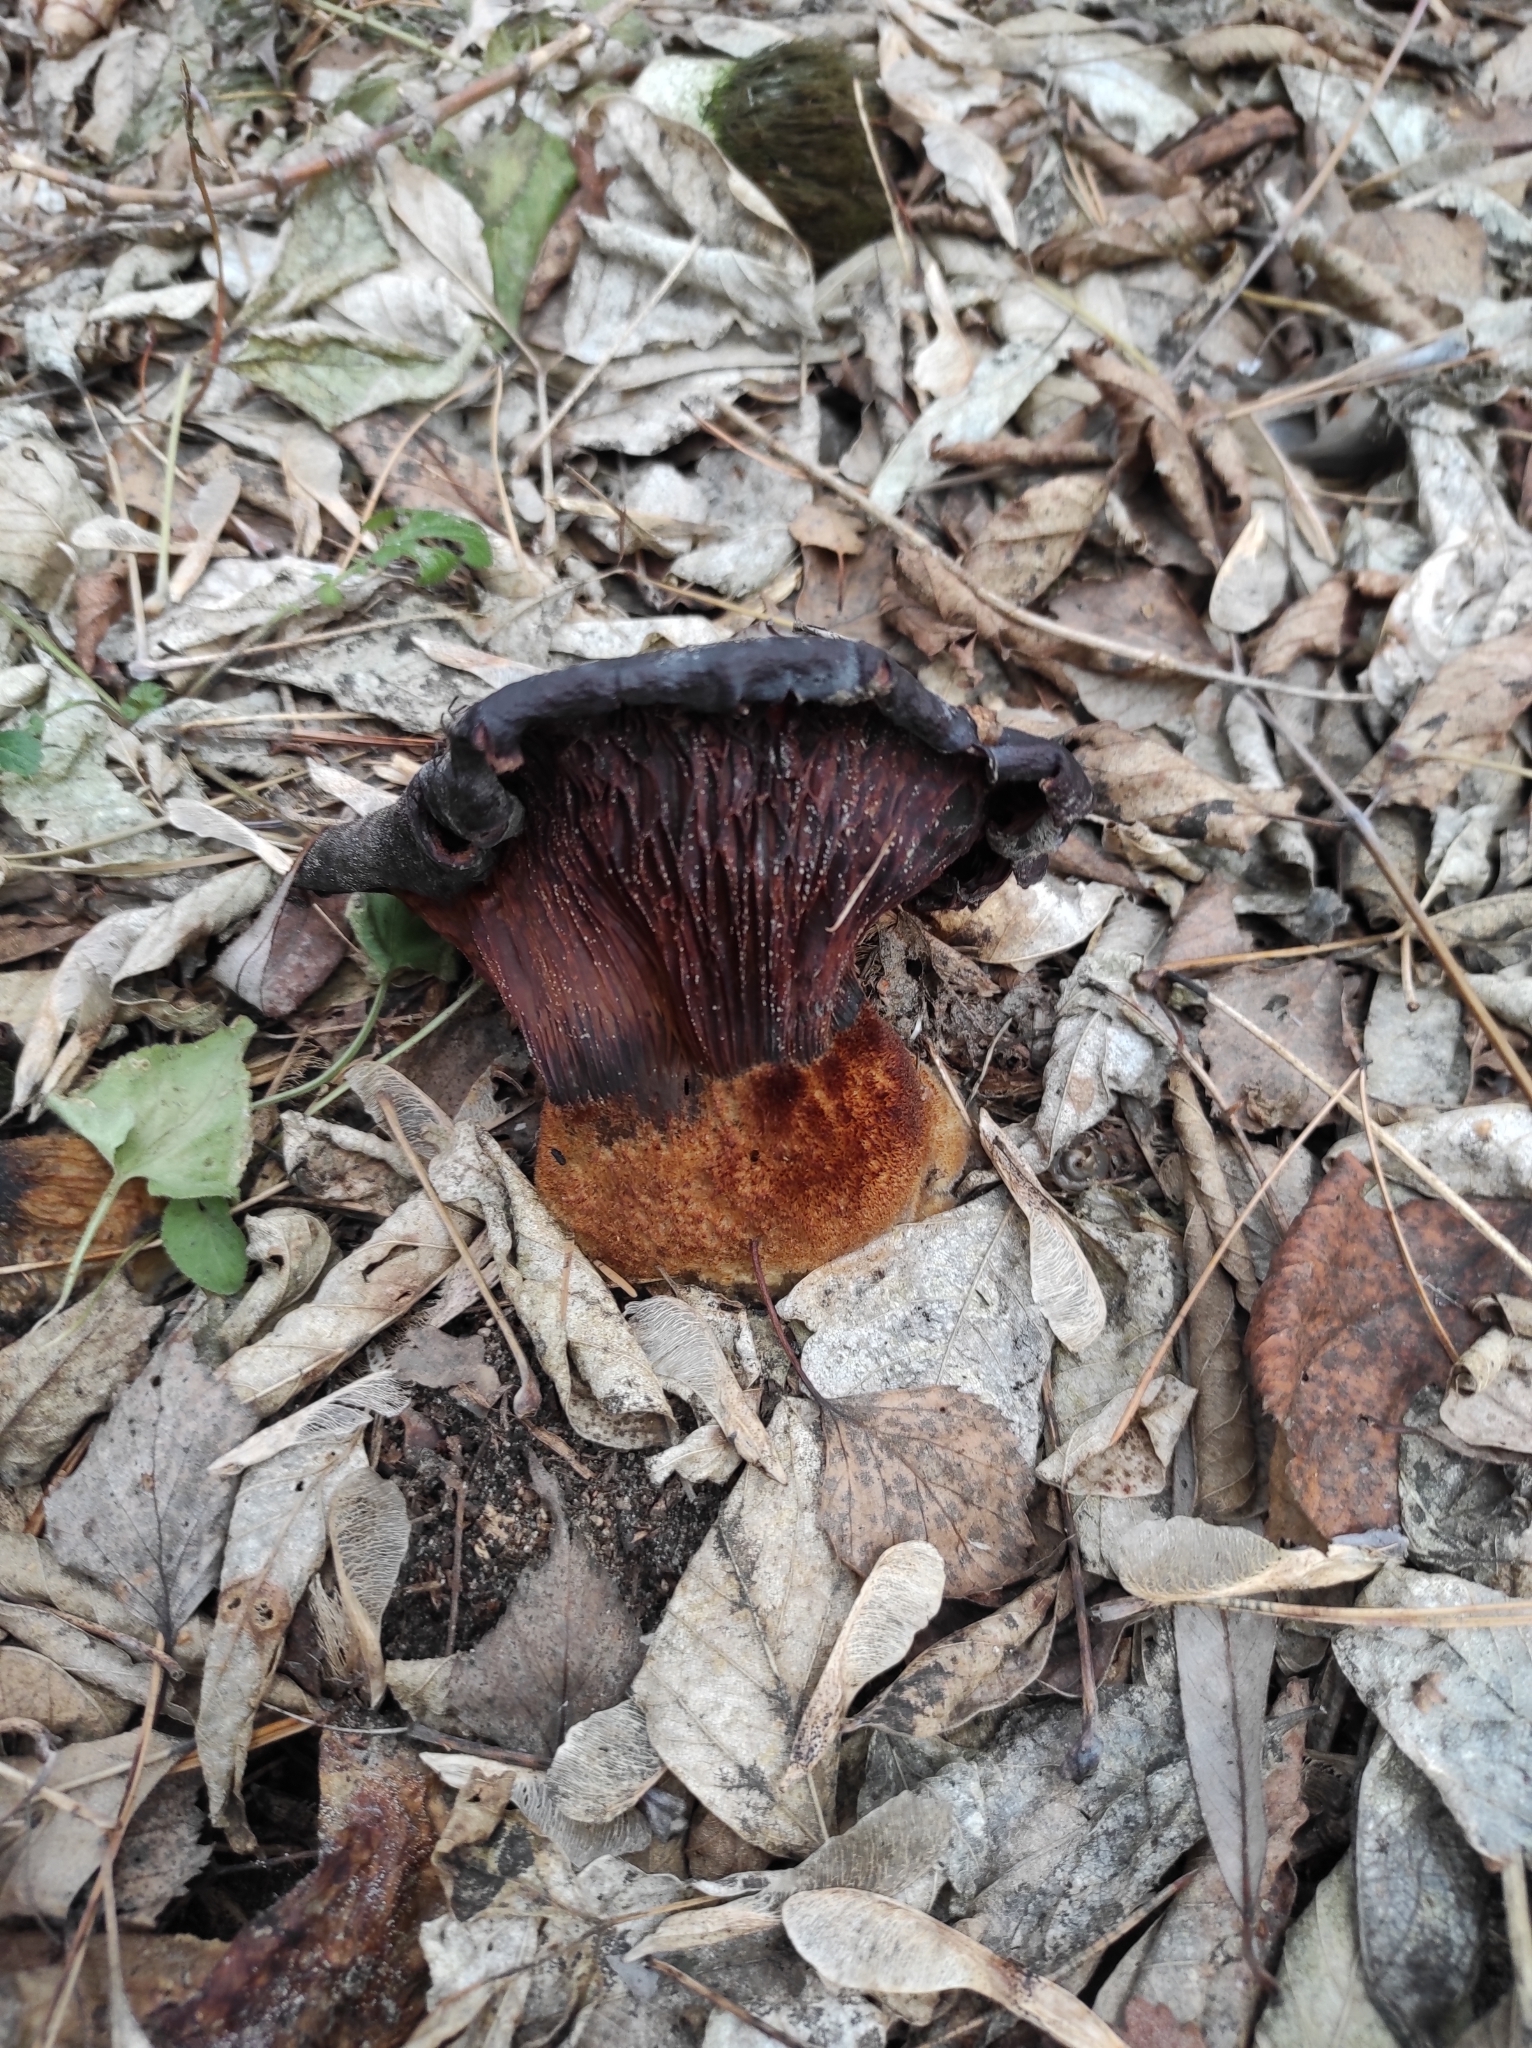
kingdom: Fungi
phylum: Basidiomycota
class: Agaricomycetes
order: Boletales
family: Tapinellaceae
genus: Tapinella
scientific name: Tapinella atrotomentosa
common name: Velvet rollrim
